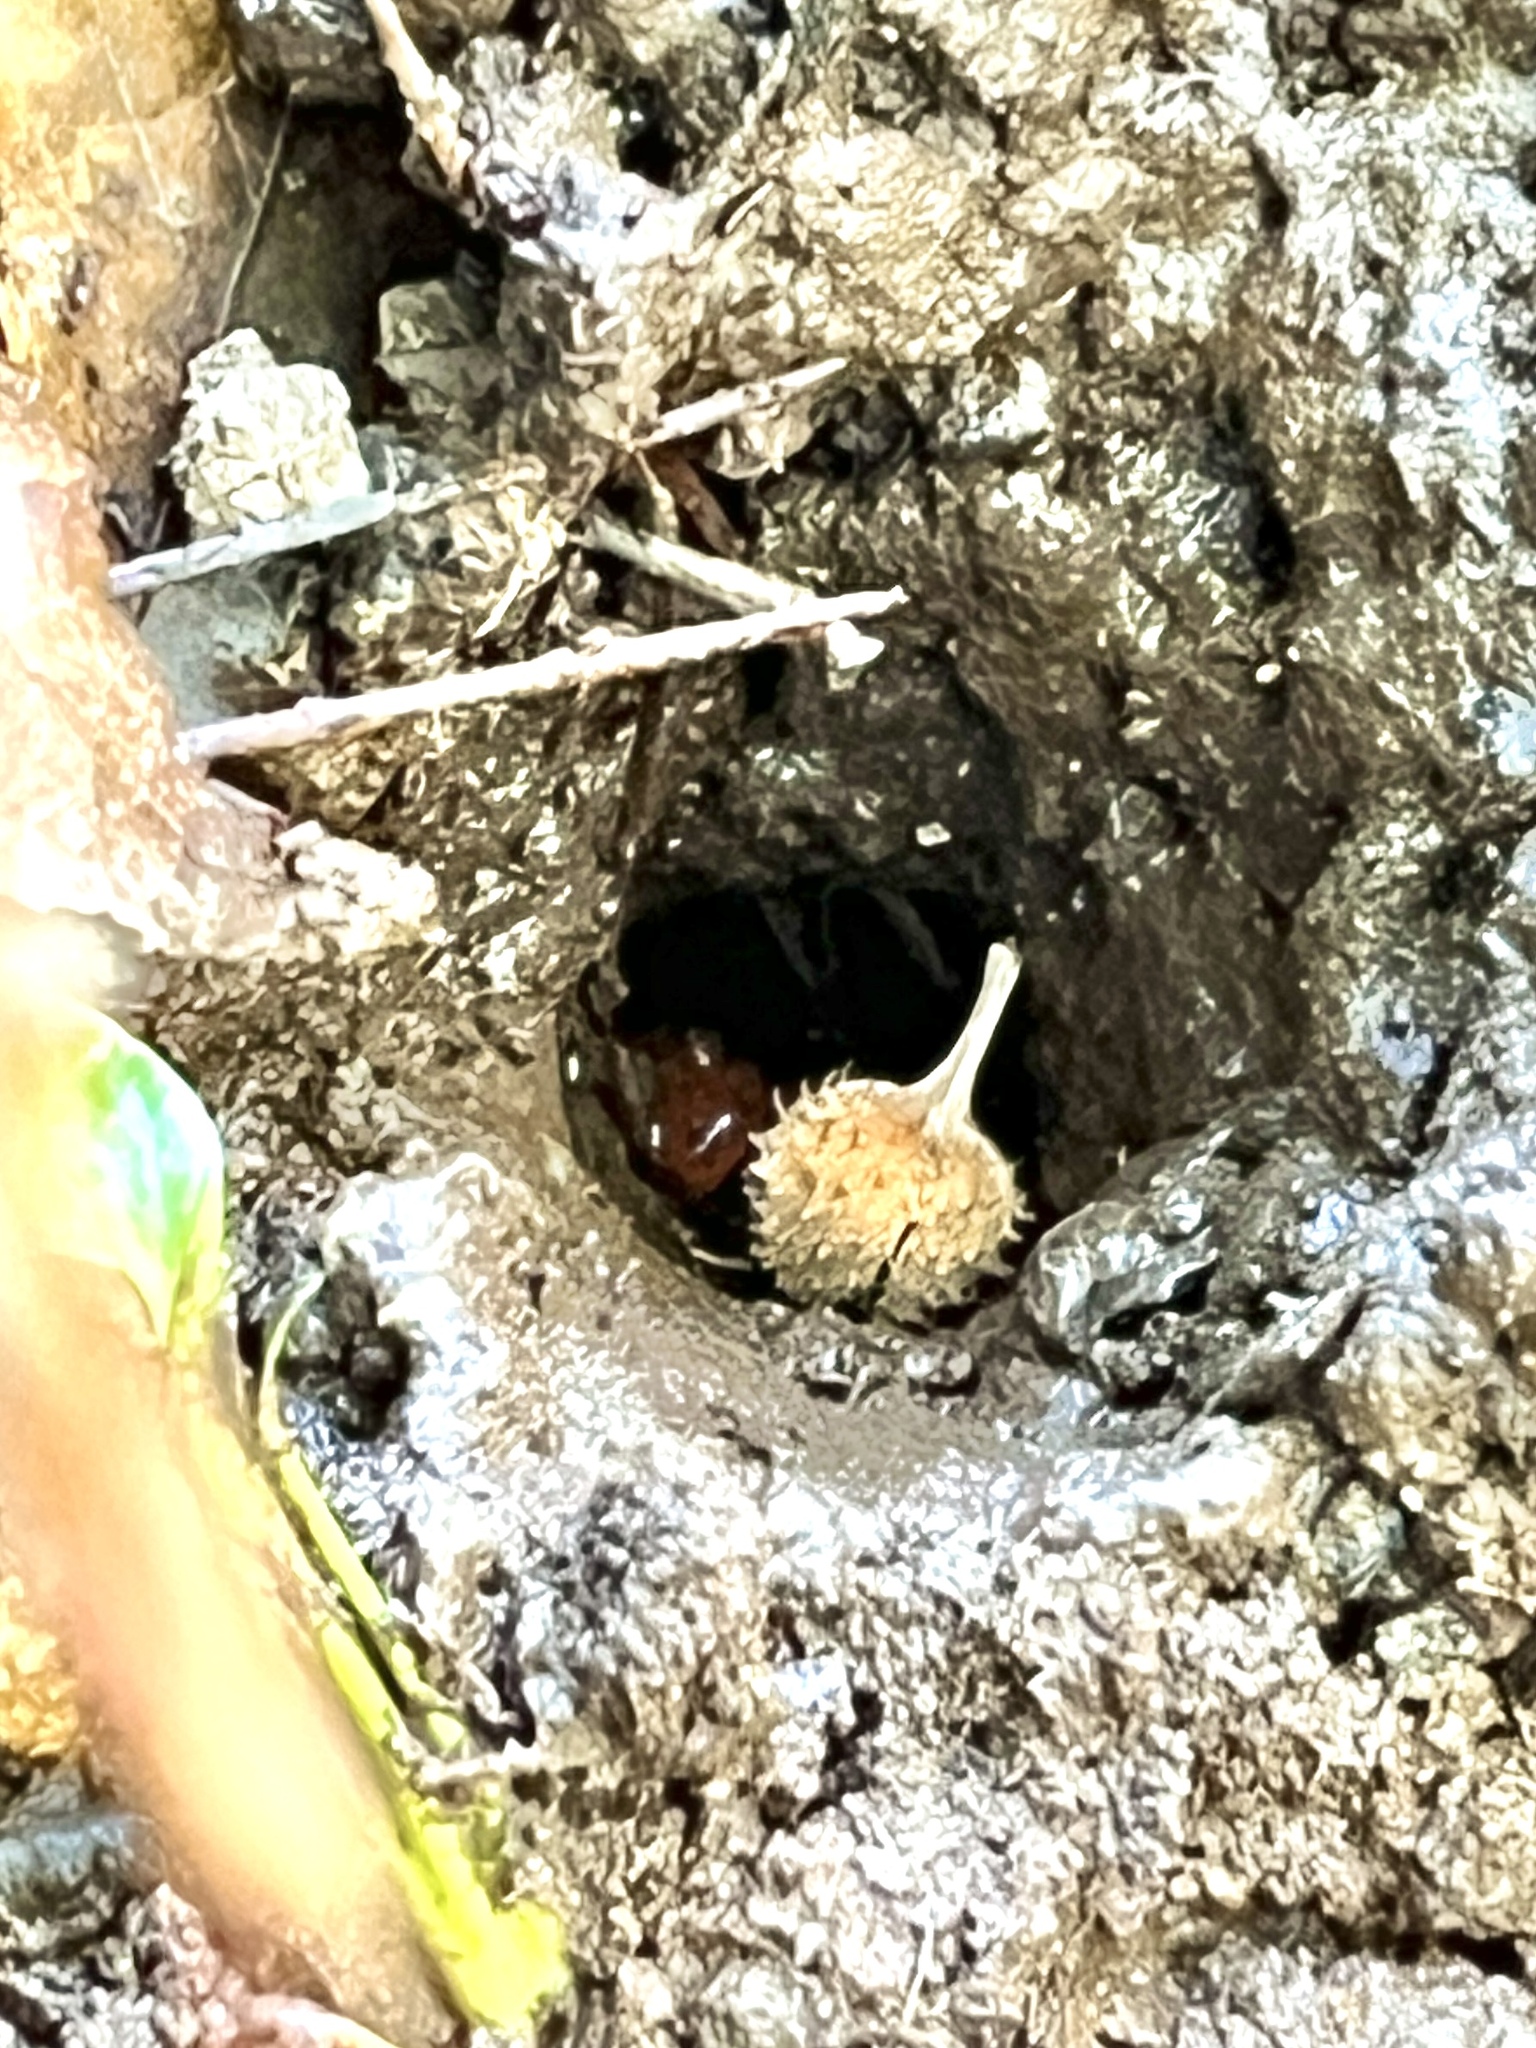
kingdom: Animalia
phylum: Chordata
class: Amphibia
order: Caudata
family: Plethodontidae
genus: Pseudotriton
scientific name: Pseudotriton montanus
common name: Mud salamander
